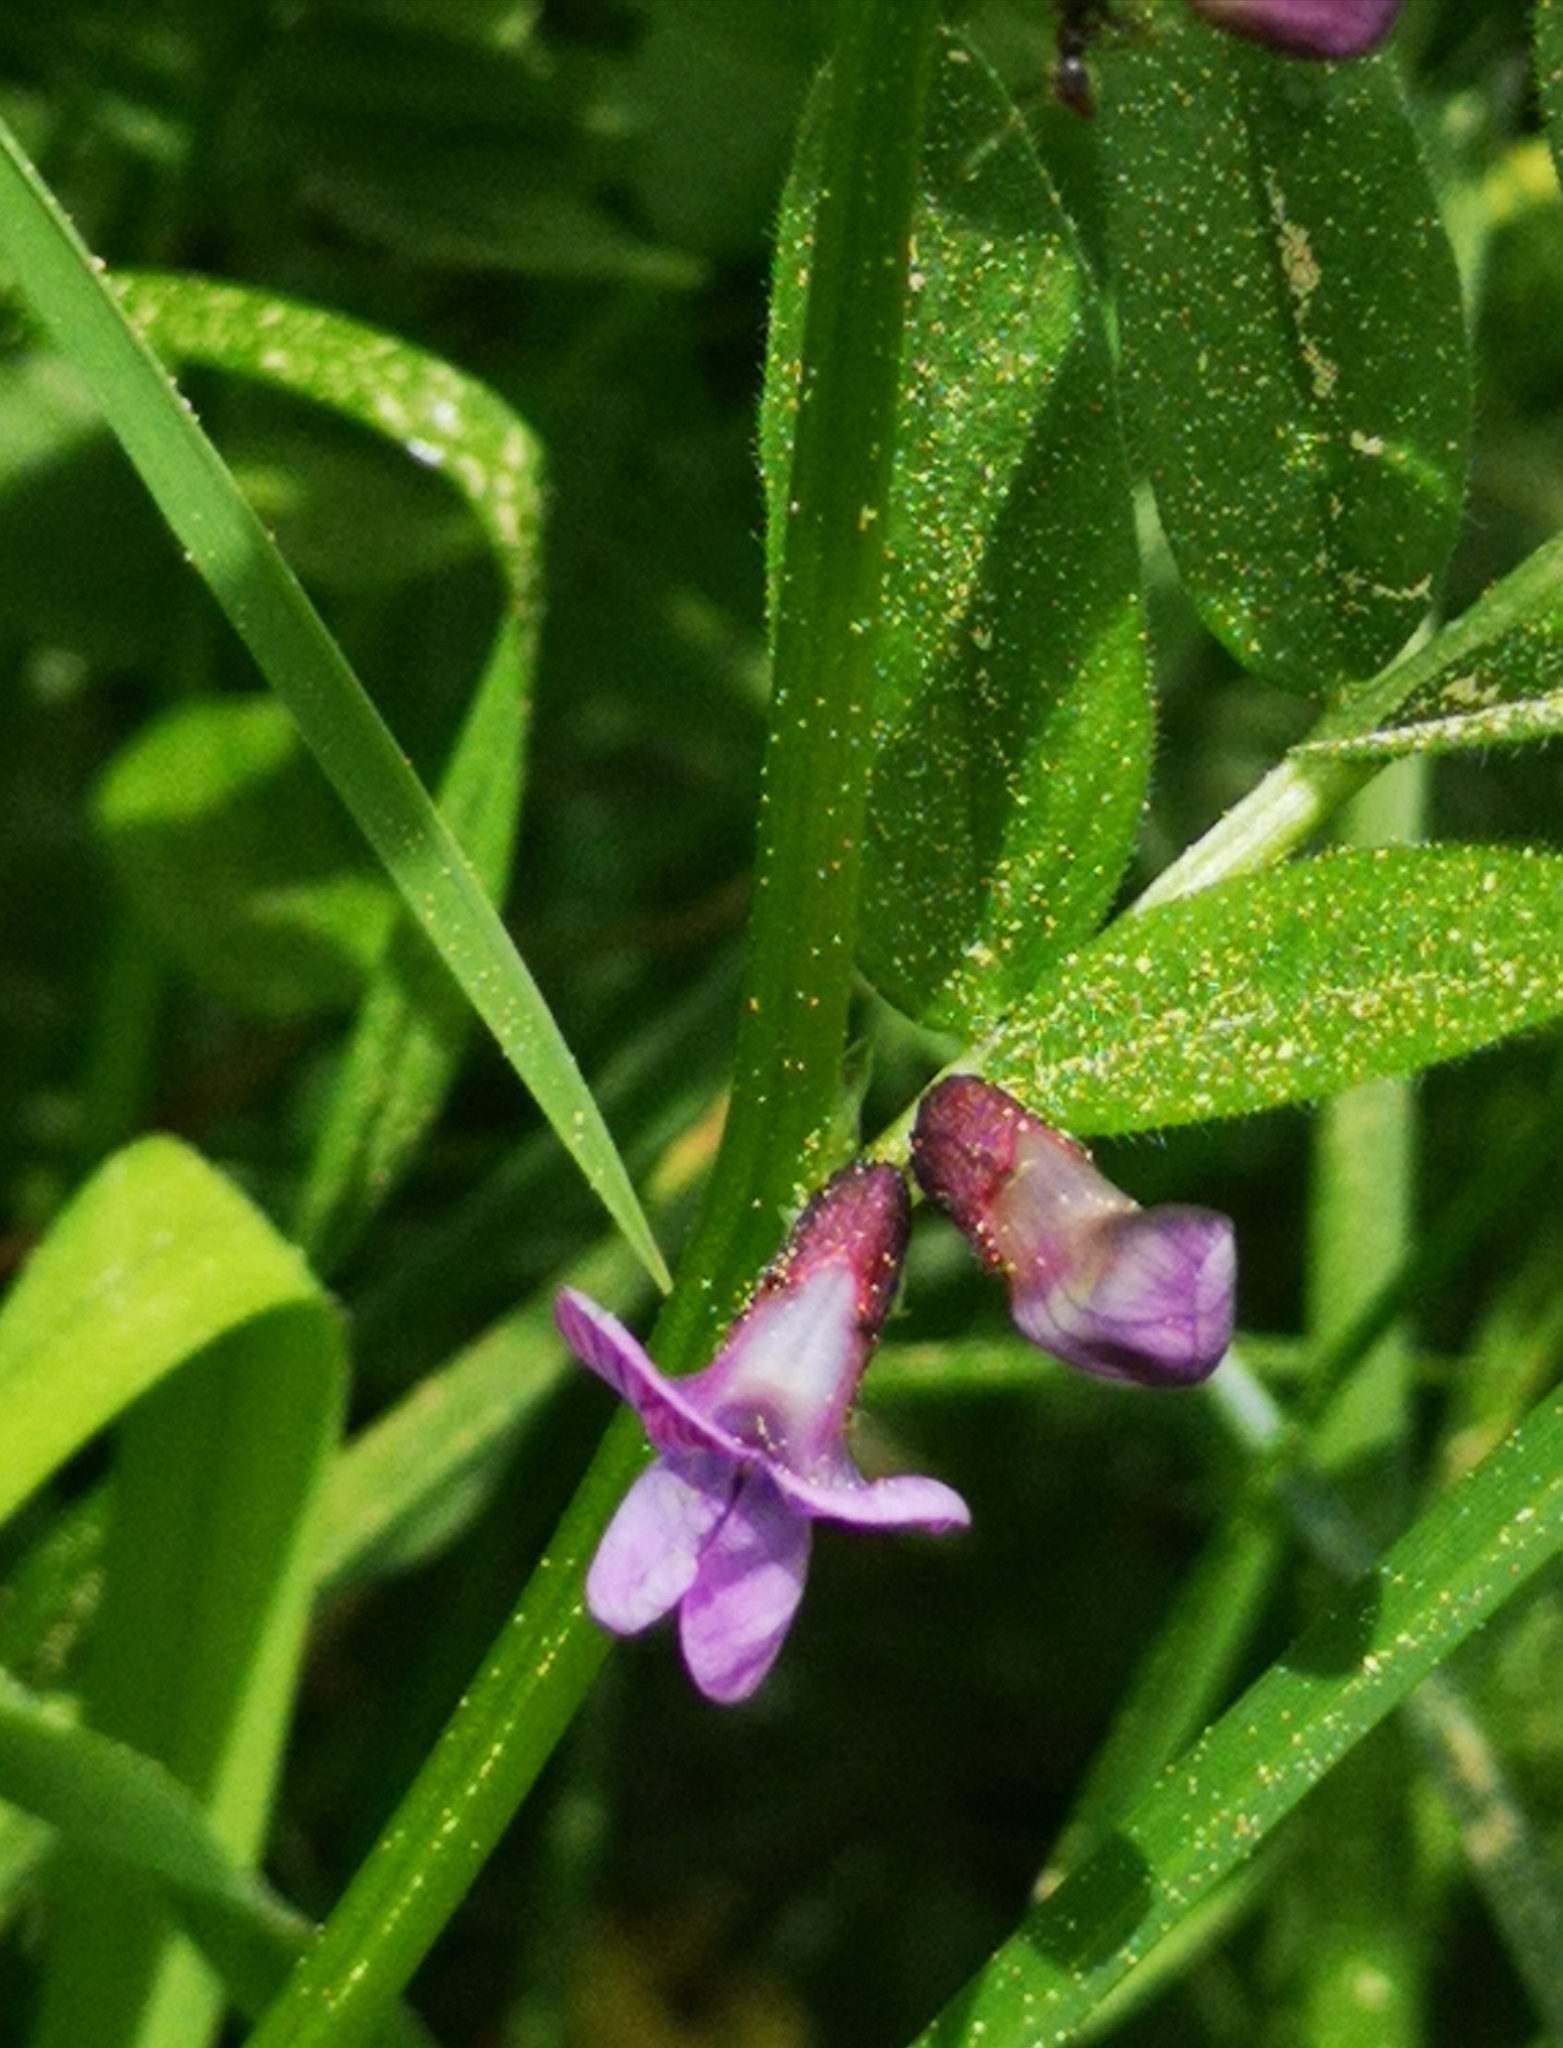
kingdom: Plantae
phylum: Tracheophyta
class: Magnoliopsida
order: Fabales
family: Fabaceae
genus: Vicia
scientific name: Vicia sepium
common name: Bush vetch
